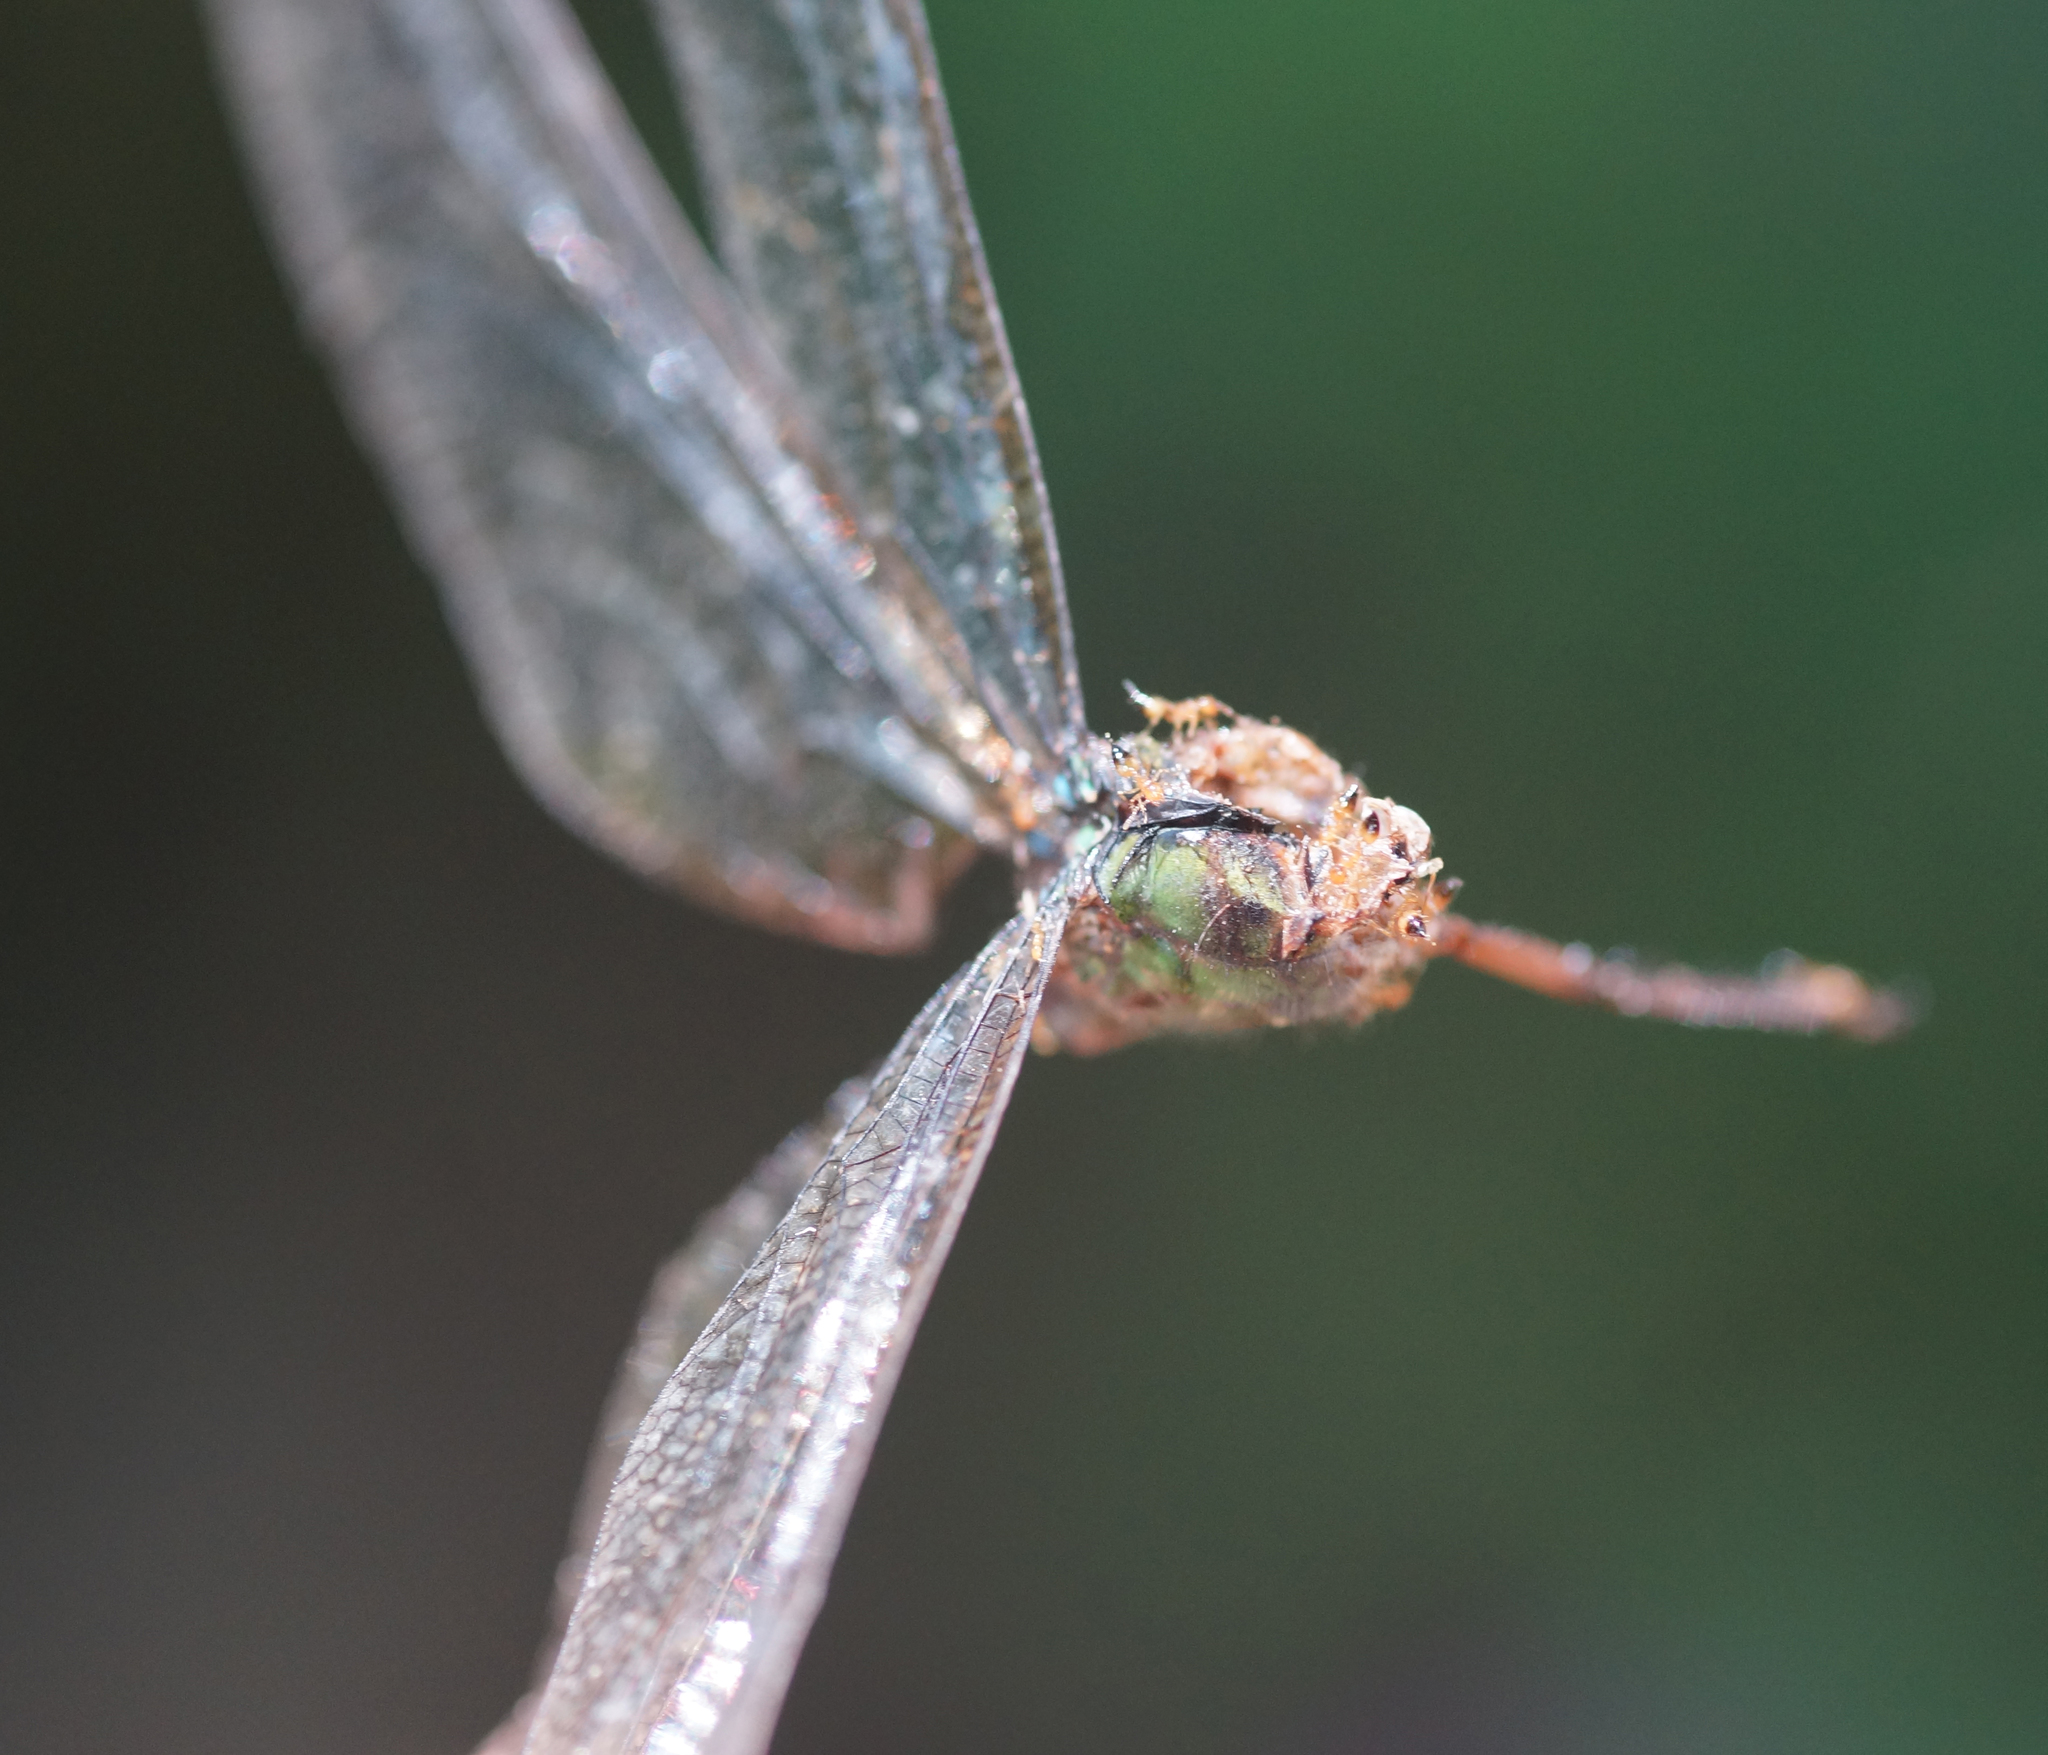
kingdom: Animalia
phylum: Arthropoda
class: Insecta
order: Odonata
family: Aeshnidae
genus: Anax
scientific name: Anax guttatus
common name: Emperor
